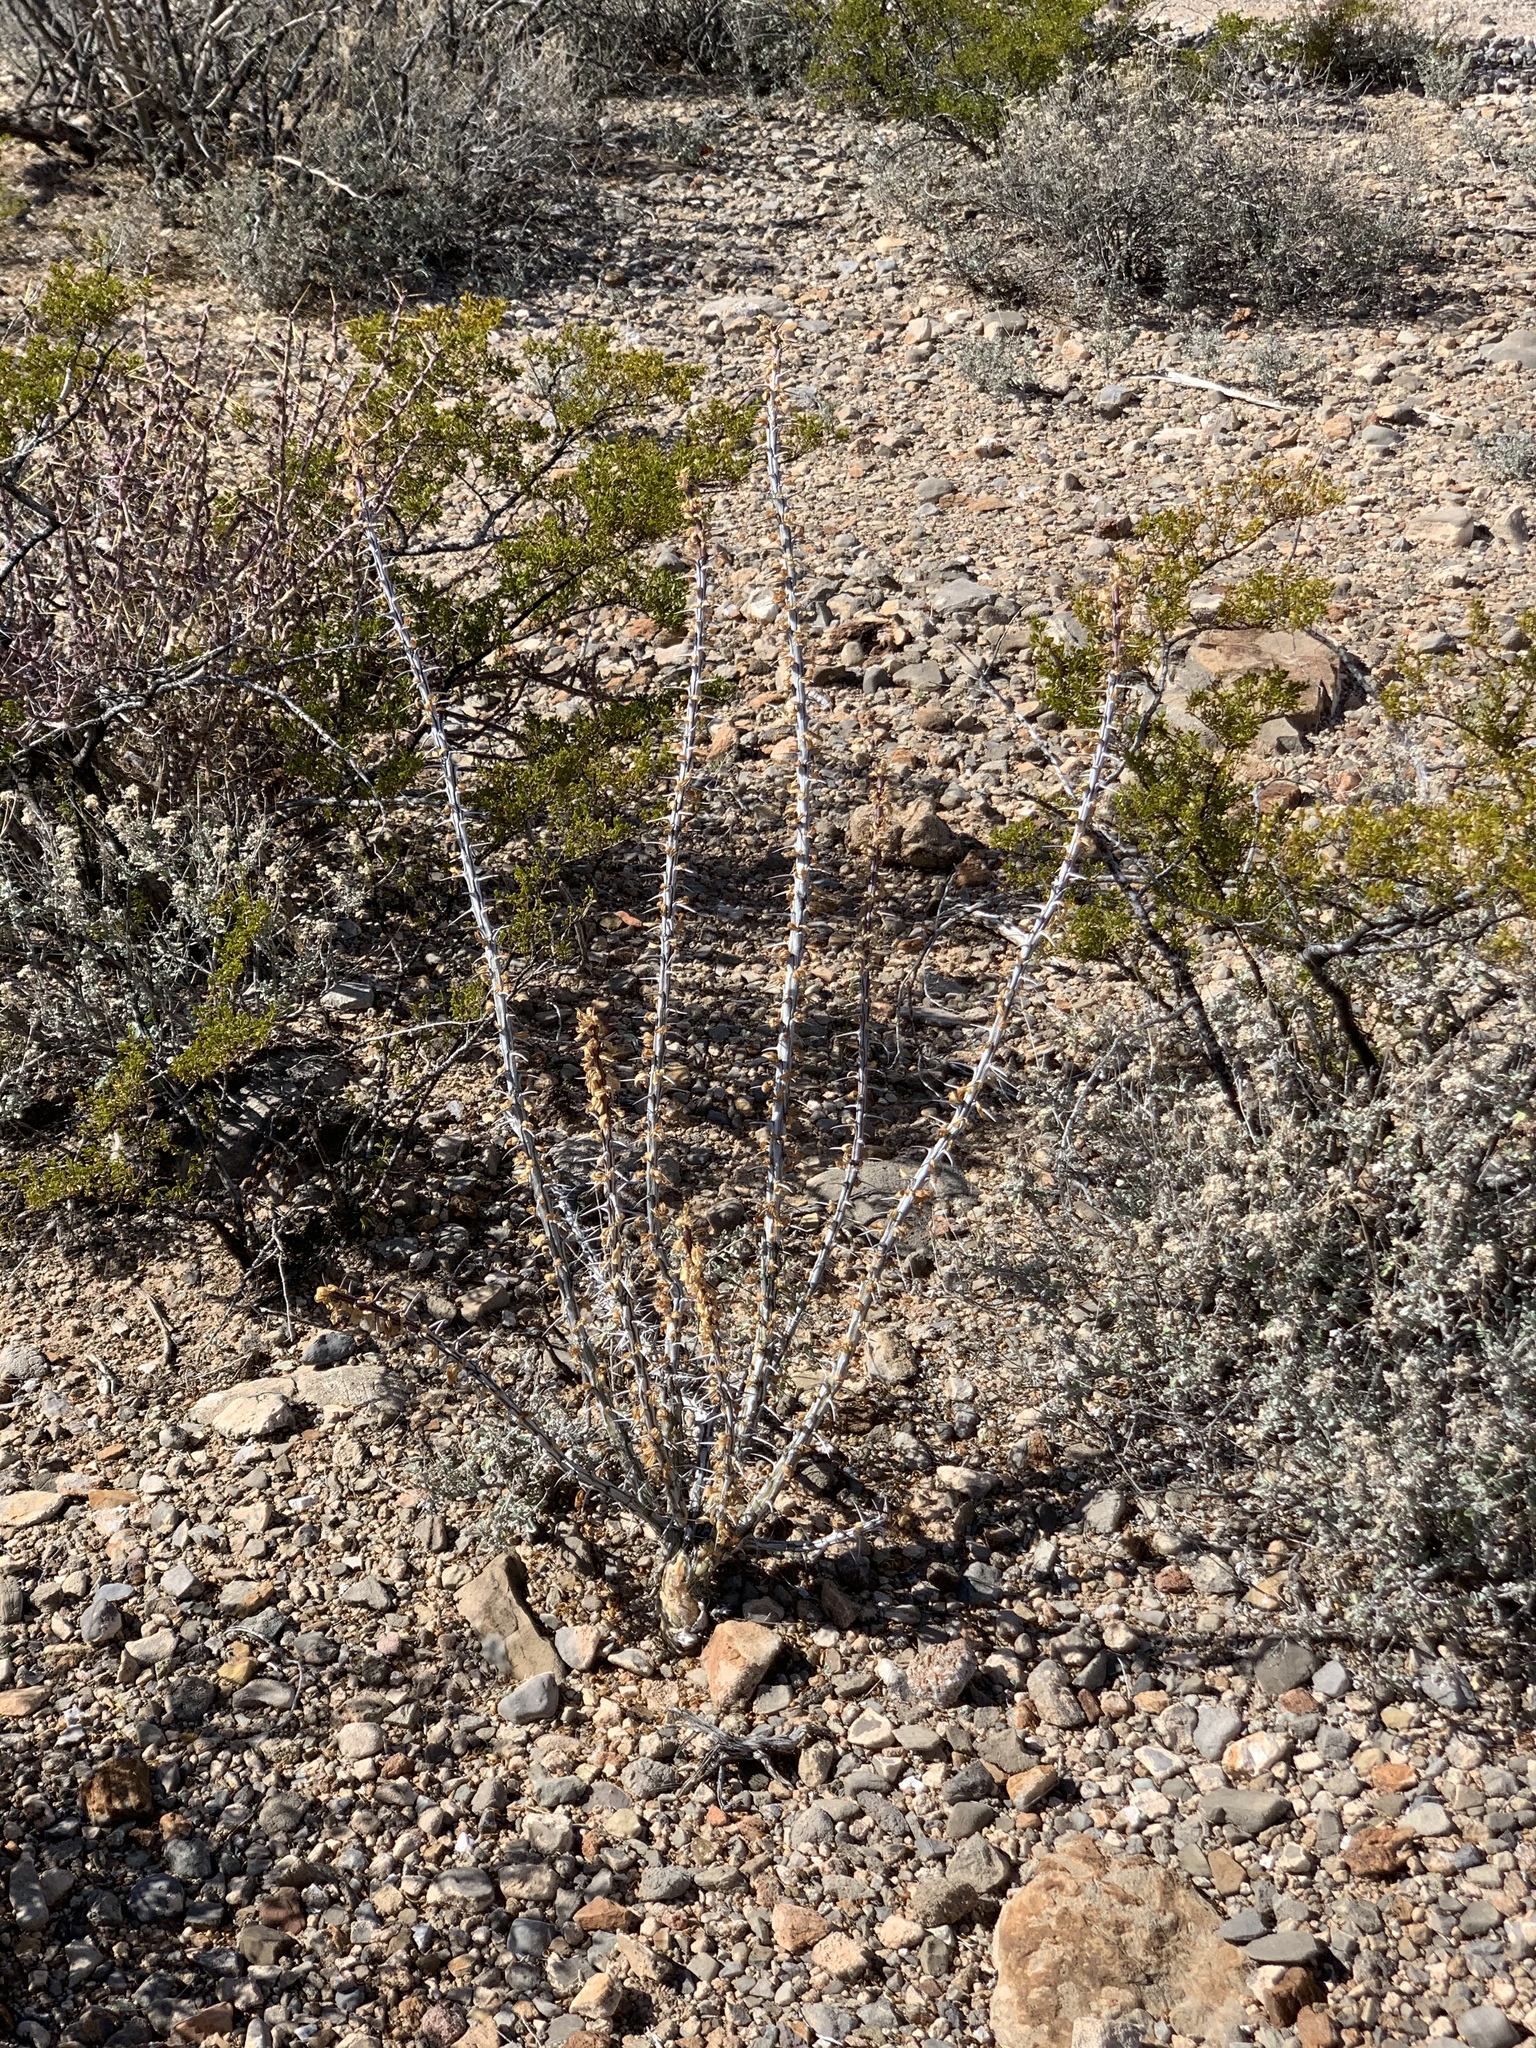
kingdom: Plantae
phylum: Tracheophyta
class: Magnoliopsida
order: Ericales
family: Fouquieriaceae
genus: Fouquieria
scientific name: Fouquieria splendens
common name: Vine-cactus
